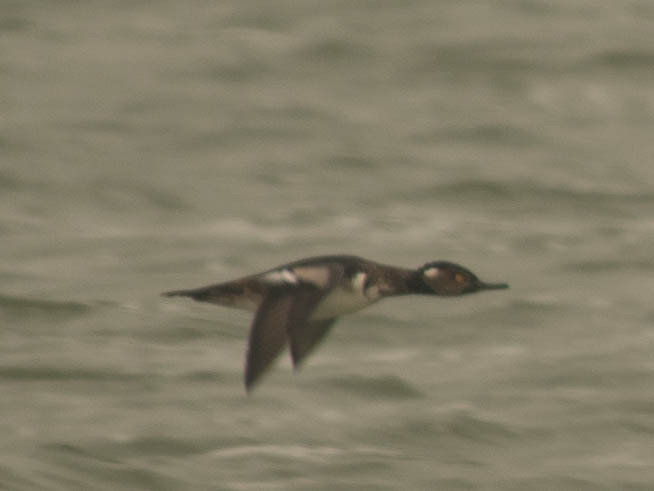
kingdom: Animalia
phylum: Chordata
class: Aves
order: Anseriformes
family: Anatidae
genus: Lophodytes
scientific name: Lophodytes cucullatus
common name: Hooded merganser
